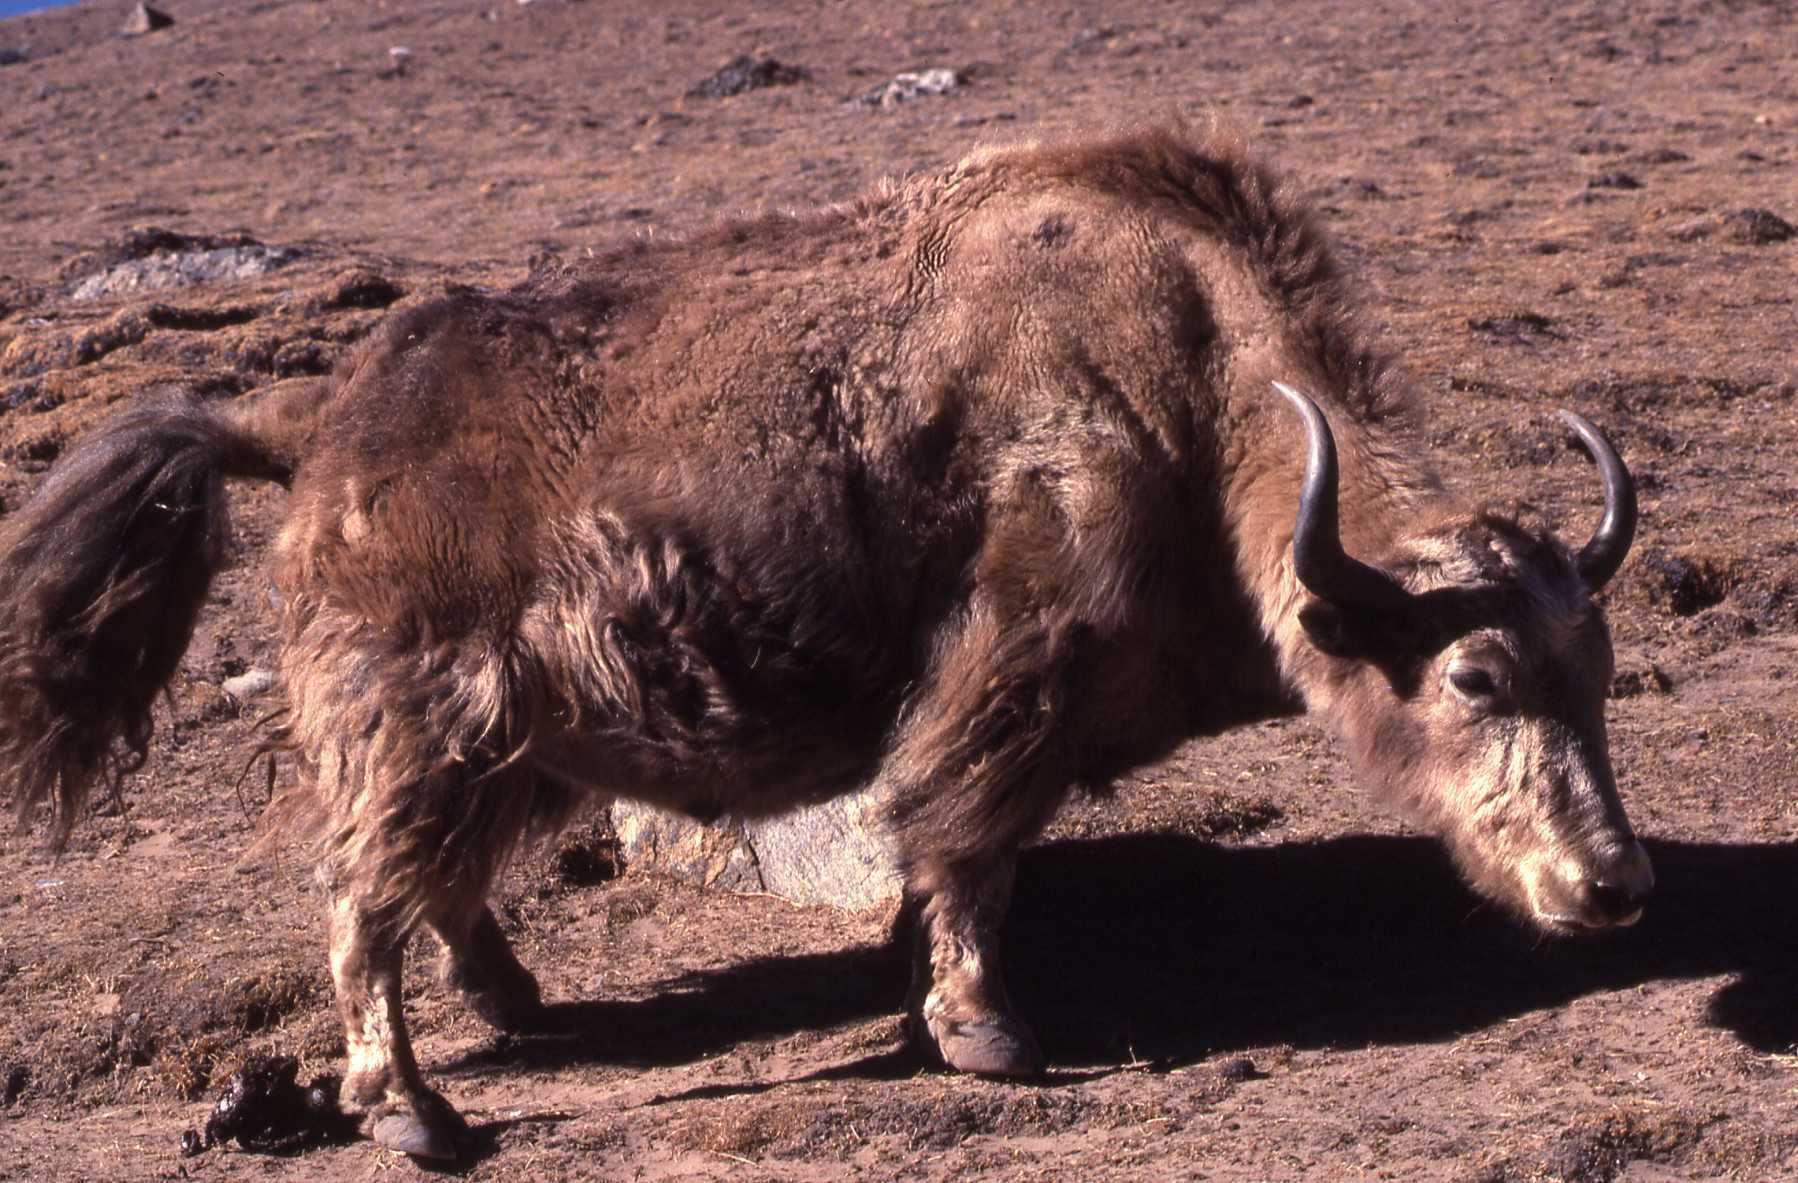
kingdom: Animalia
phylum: Chordata
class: Mammalia
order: Artiodactyla
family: Bovidae
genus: Bos
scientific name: Bos grunniens
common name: Yak
